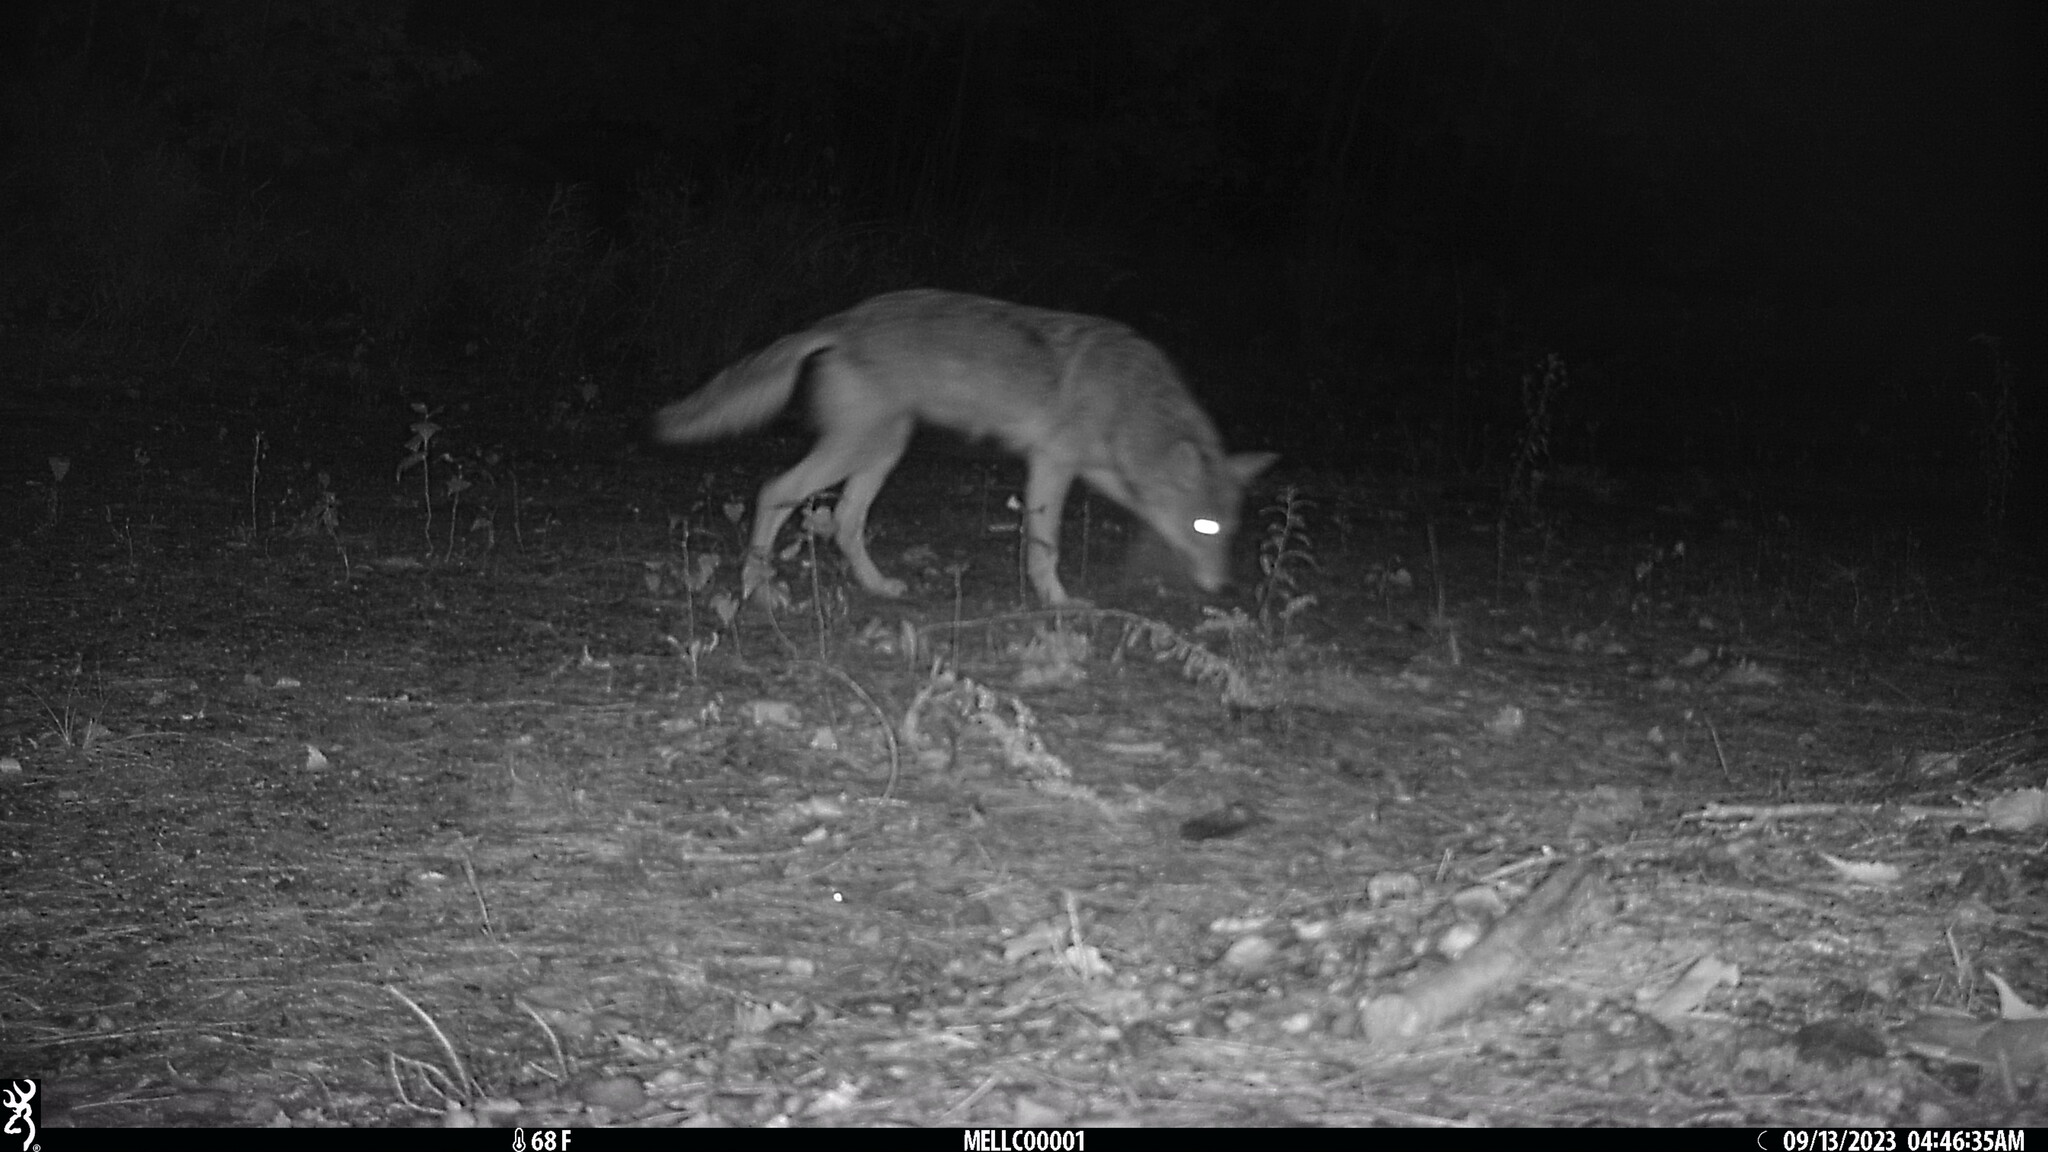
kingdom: Animalia
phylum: Chordata
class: Mammalia
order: Carnivora
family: Canidae
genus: Canis
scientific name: Canis latrans
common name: Coyote
